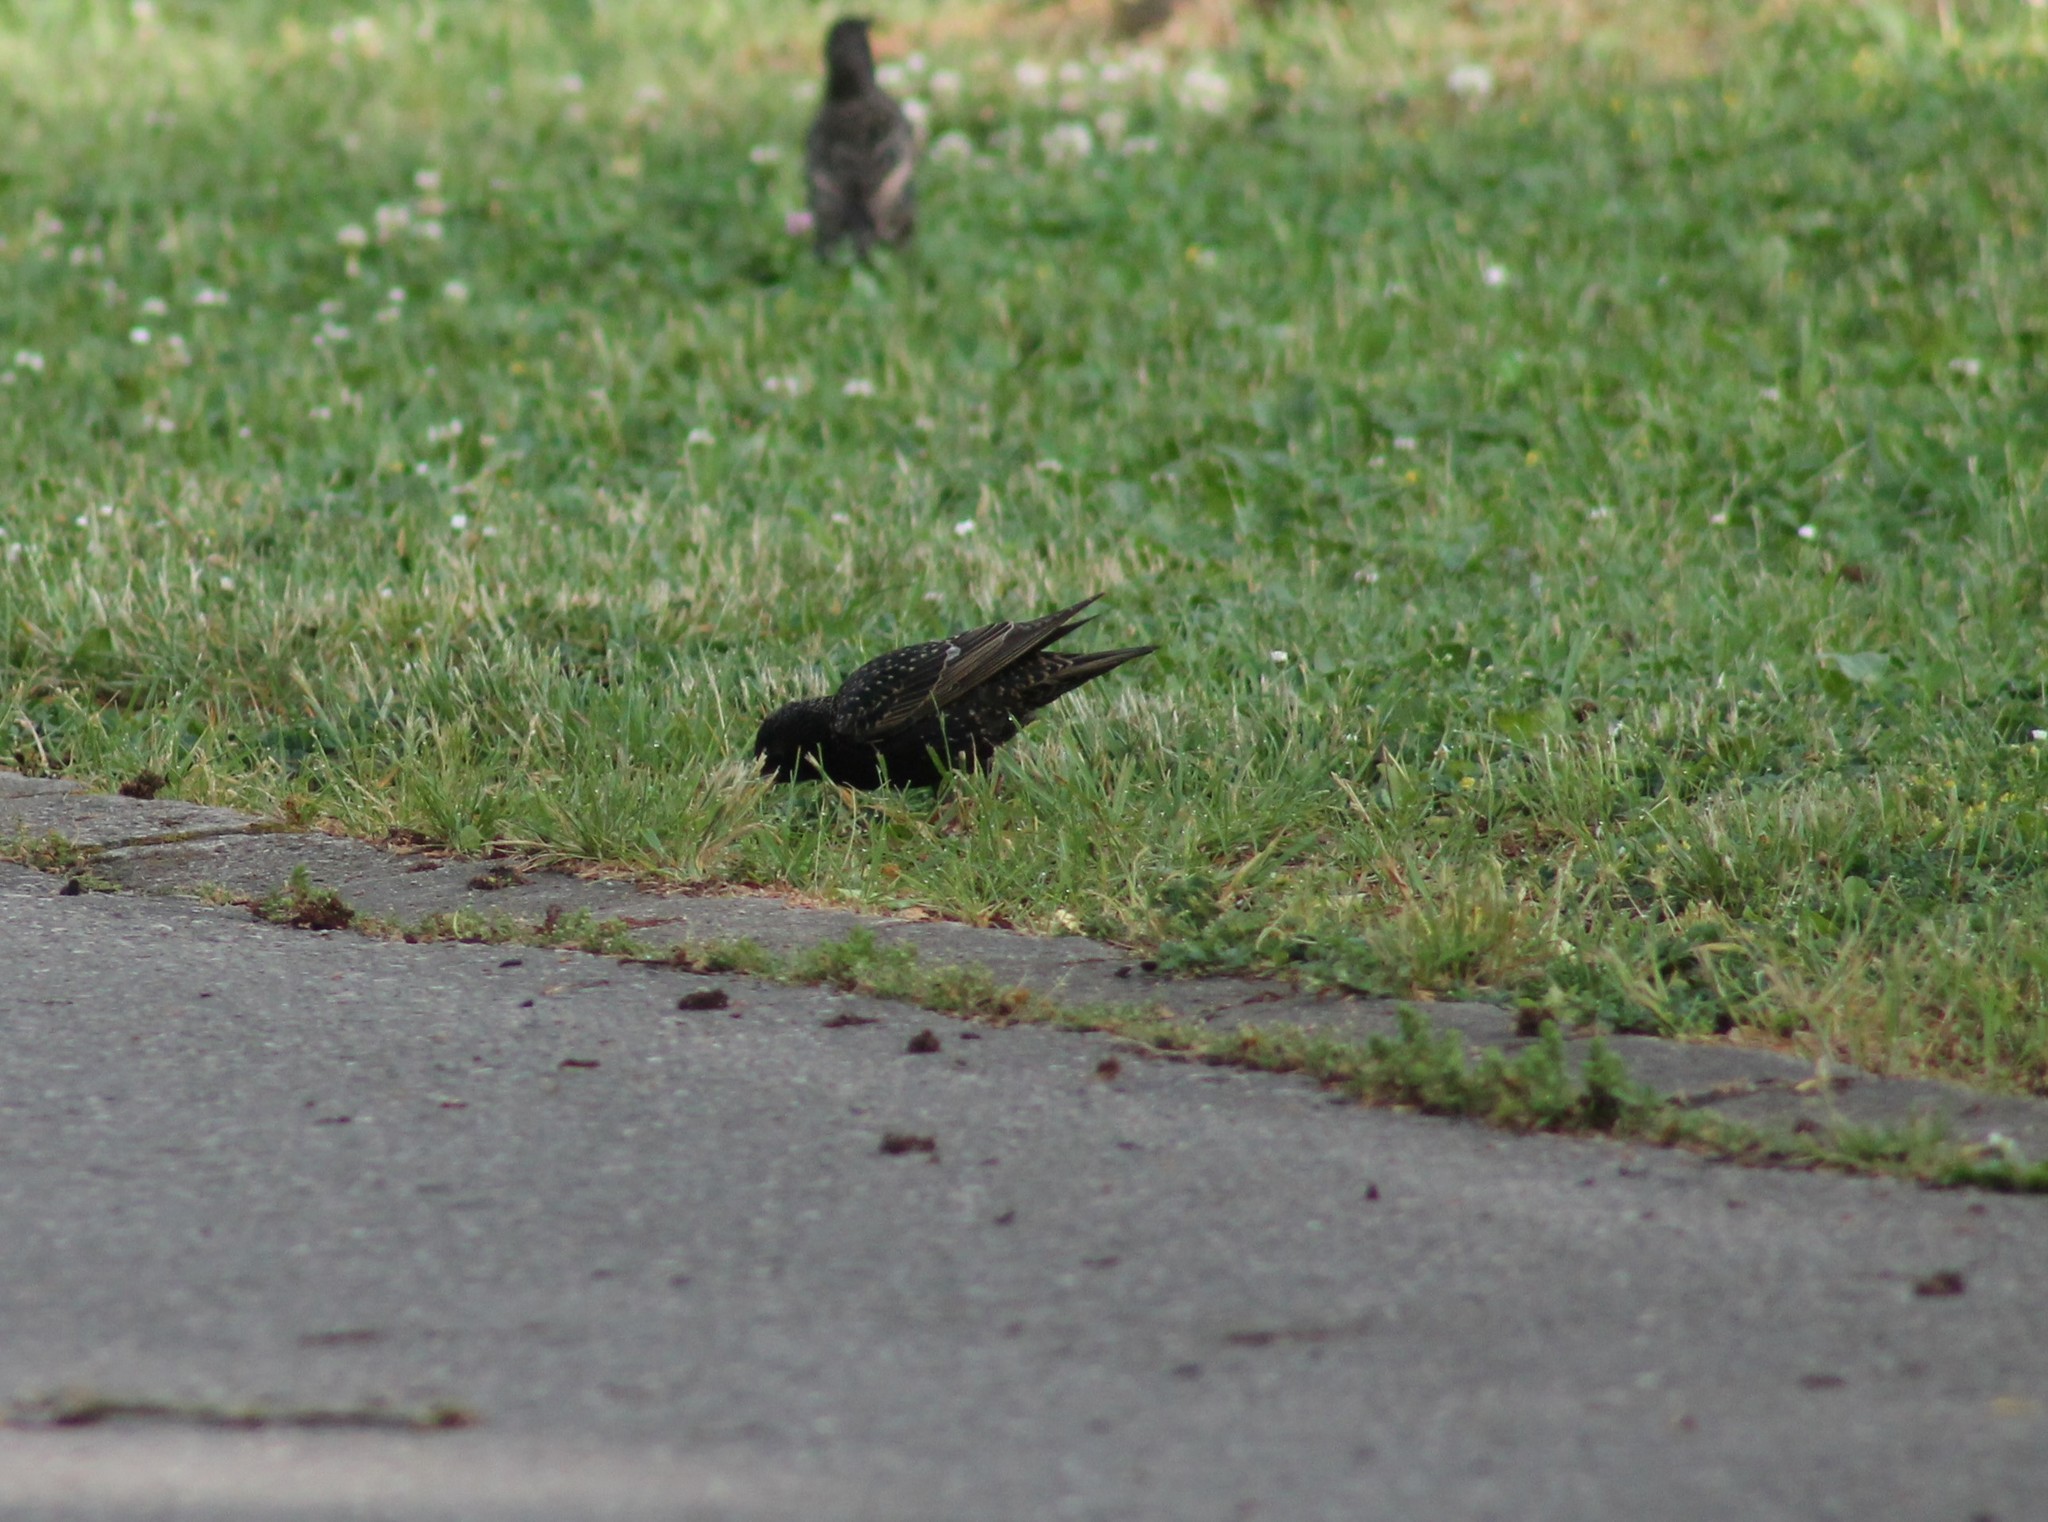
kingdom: Animalia
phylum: Chordata
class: Aves
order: Passeriformes
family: Sturnidae
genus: Sturnus
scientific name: Sturnus vulgaris
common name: Common starling
